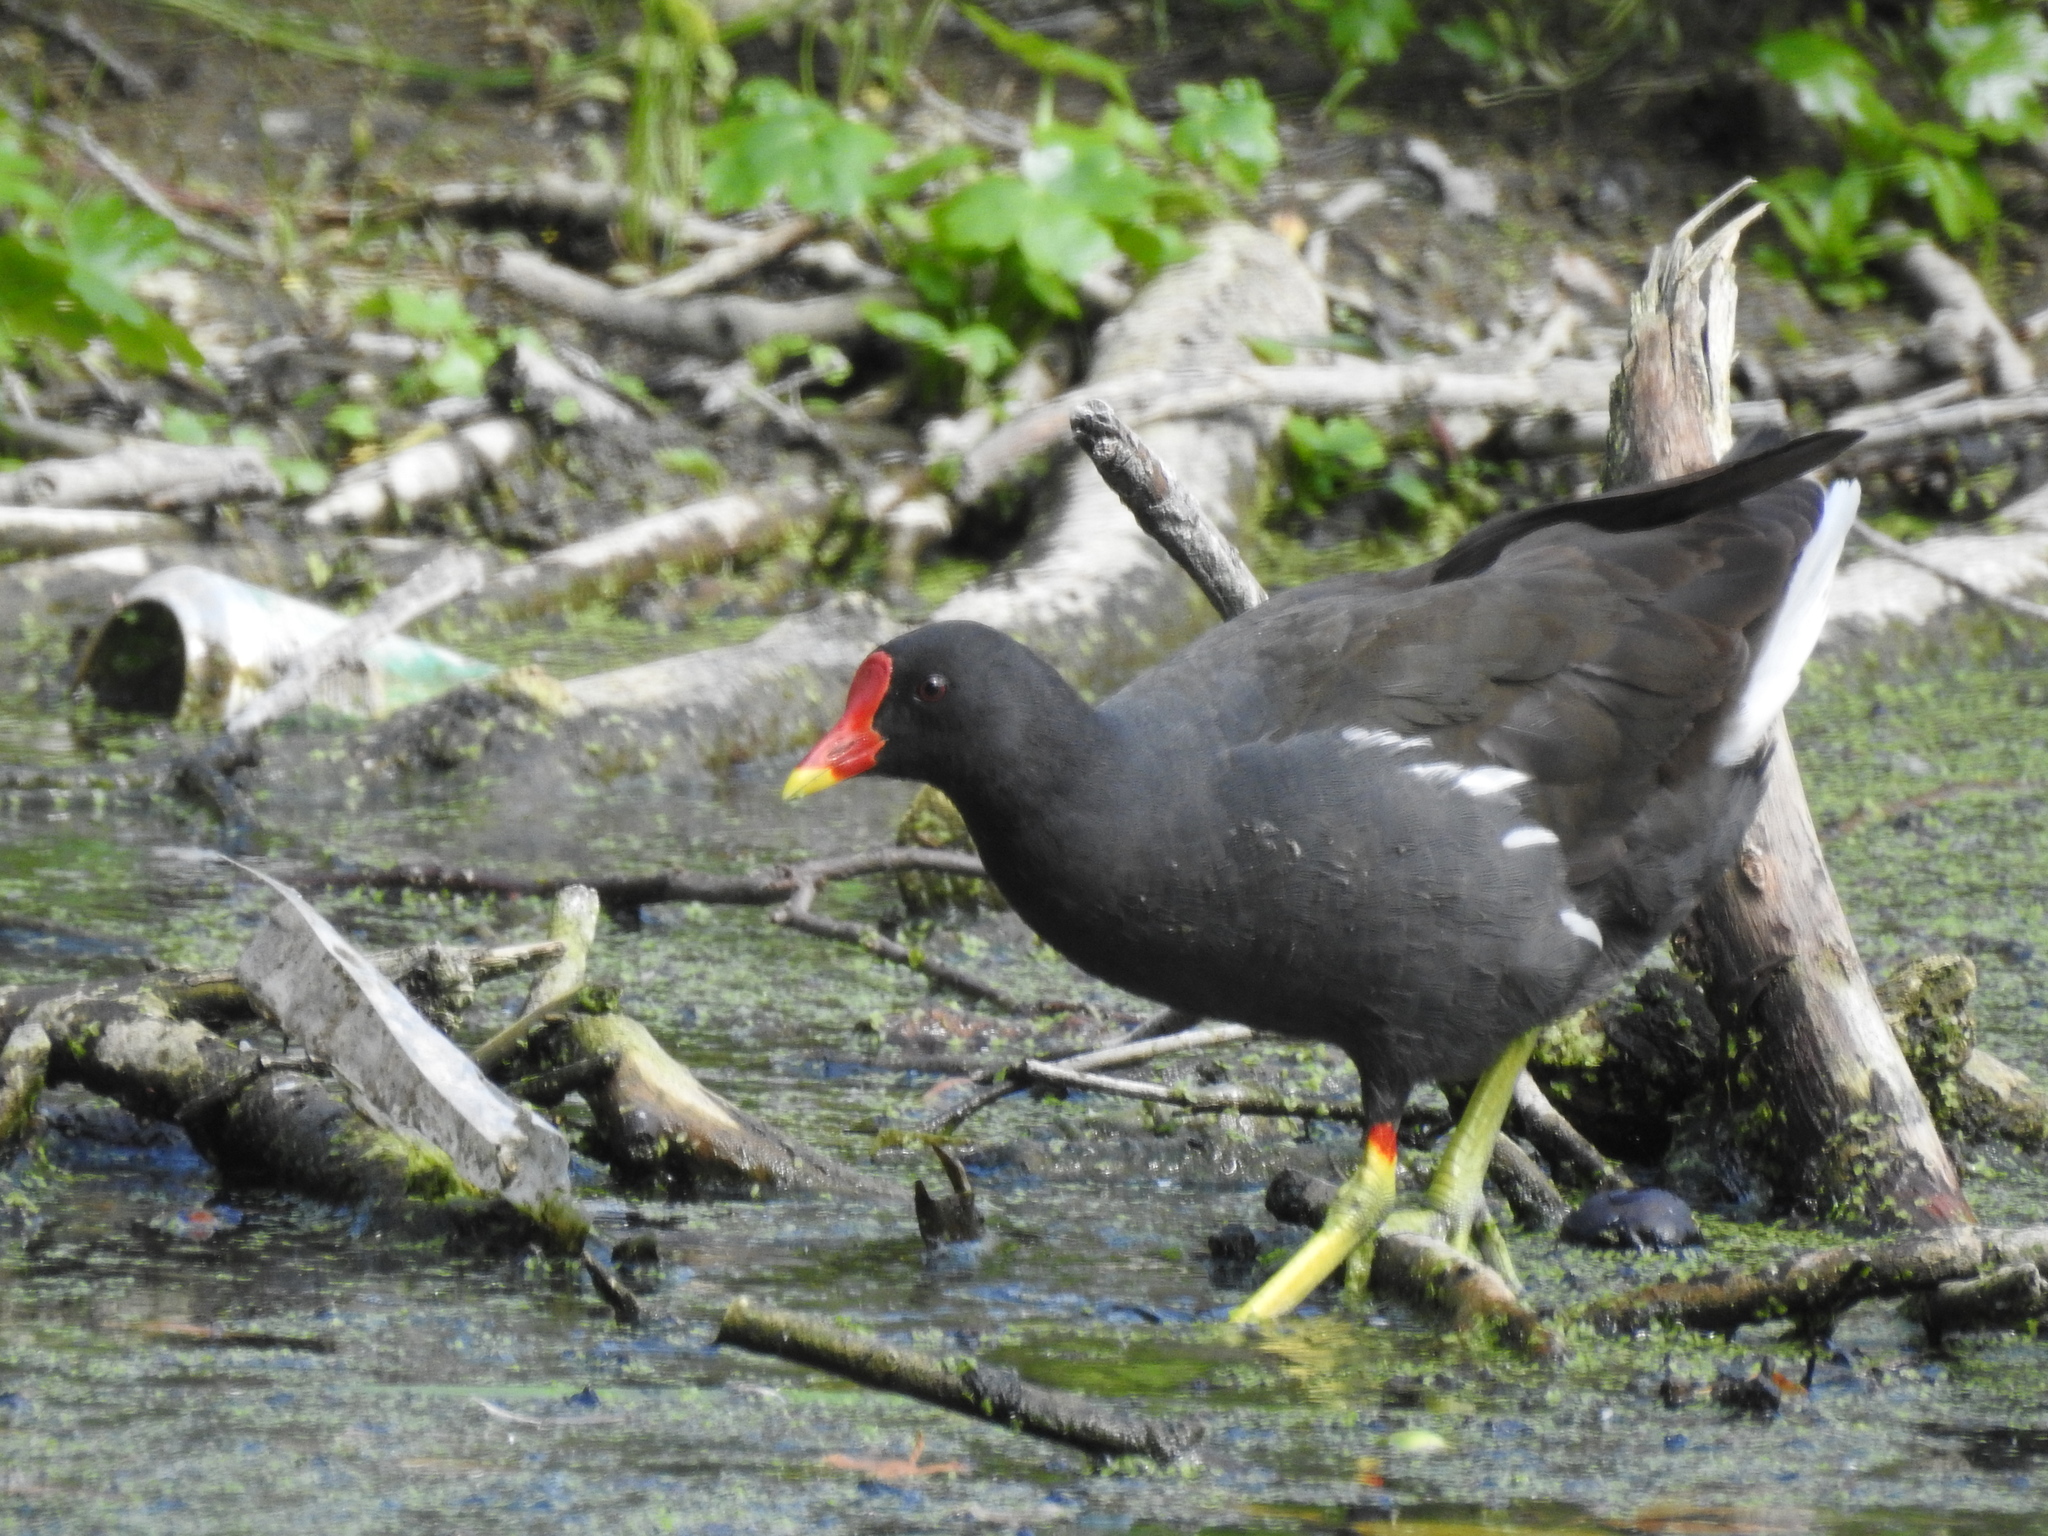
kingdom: Animalia
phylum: Chordata
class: Aves
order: Gruiformes
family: Rallidae
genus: Gallinula
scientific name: Gallinula chloropus
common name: Common moorhen
